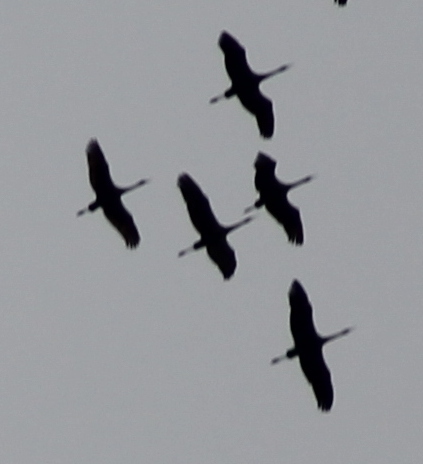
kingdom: Animalia
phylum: Chordata
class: Aves
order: Gruiformes
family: Gruidae
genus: Grus
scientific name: Grus canadensis
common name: Sandhill crane
